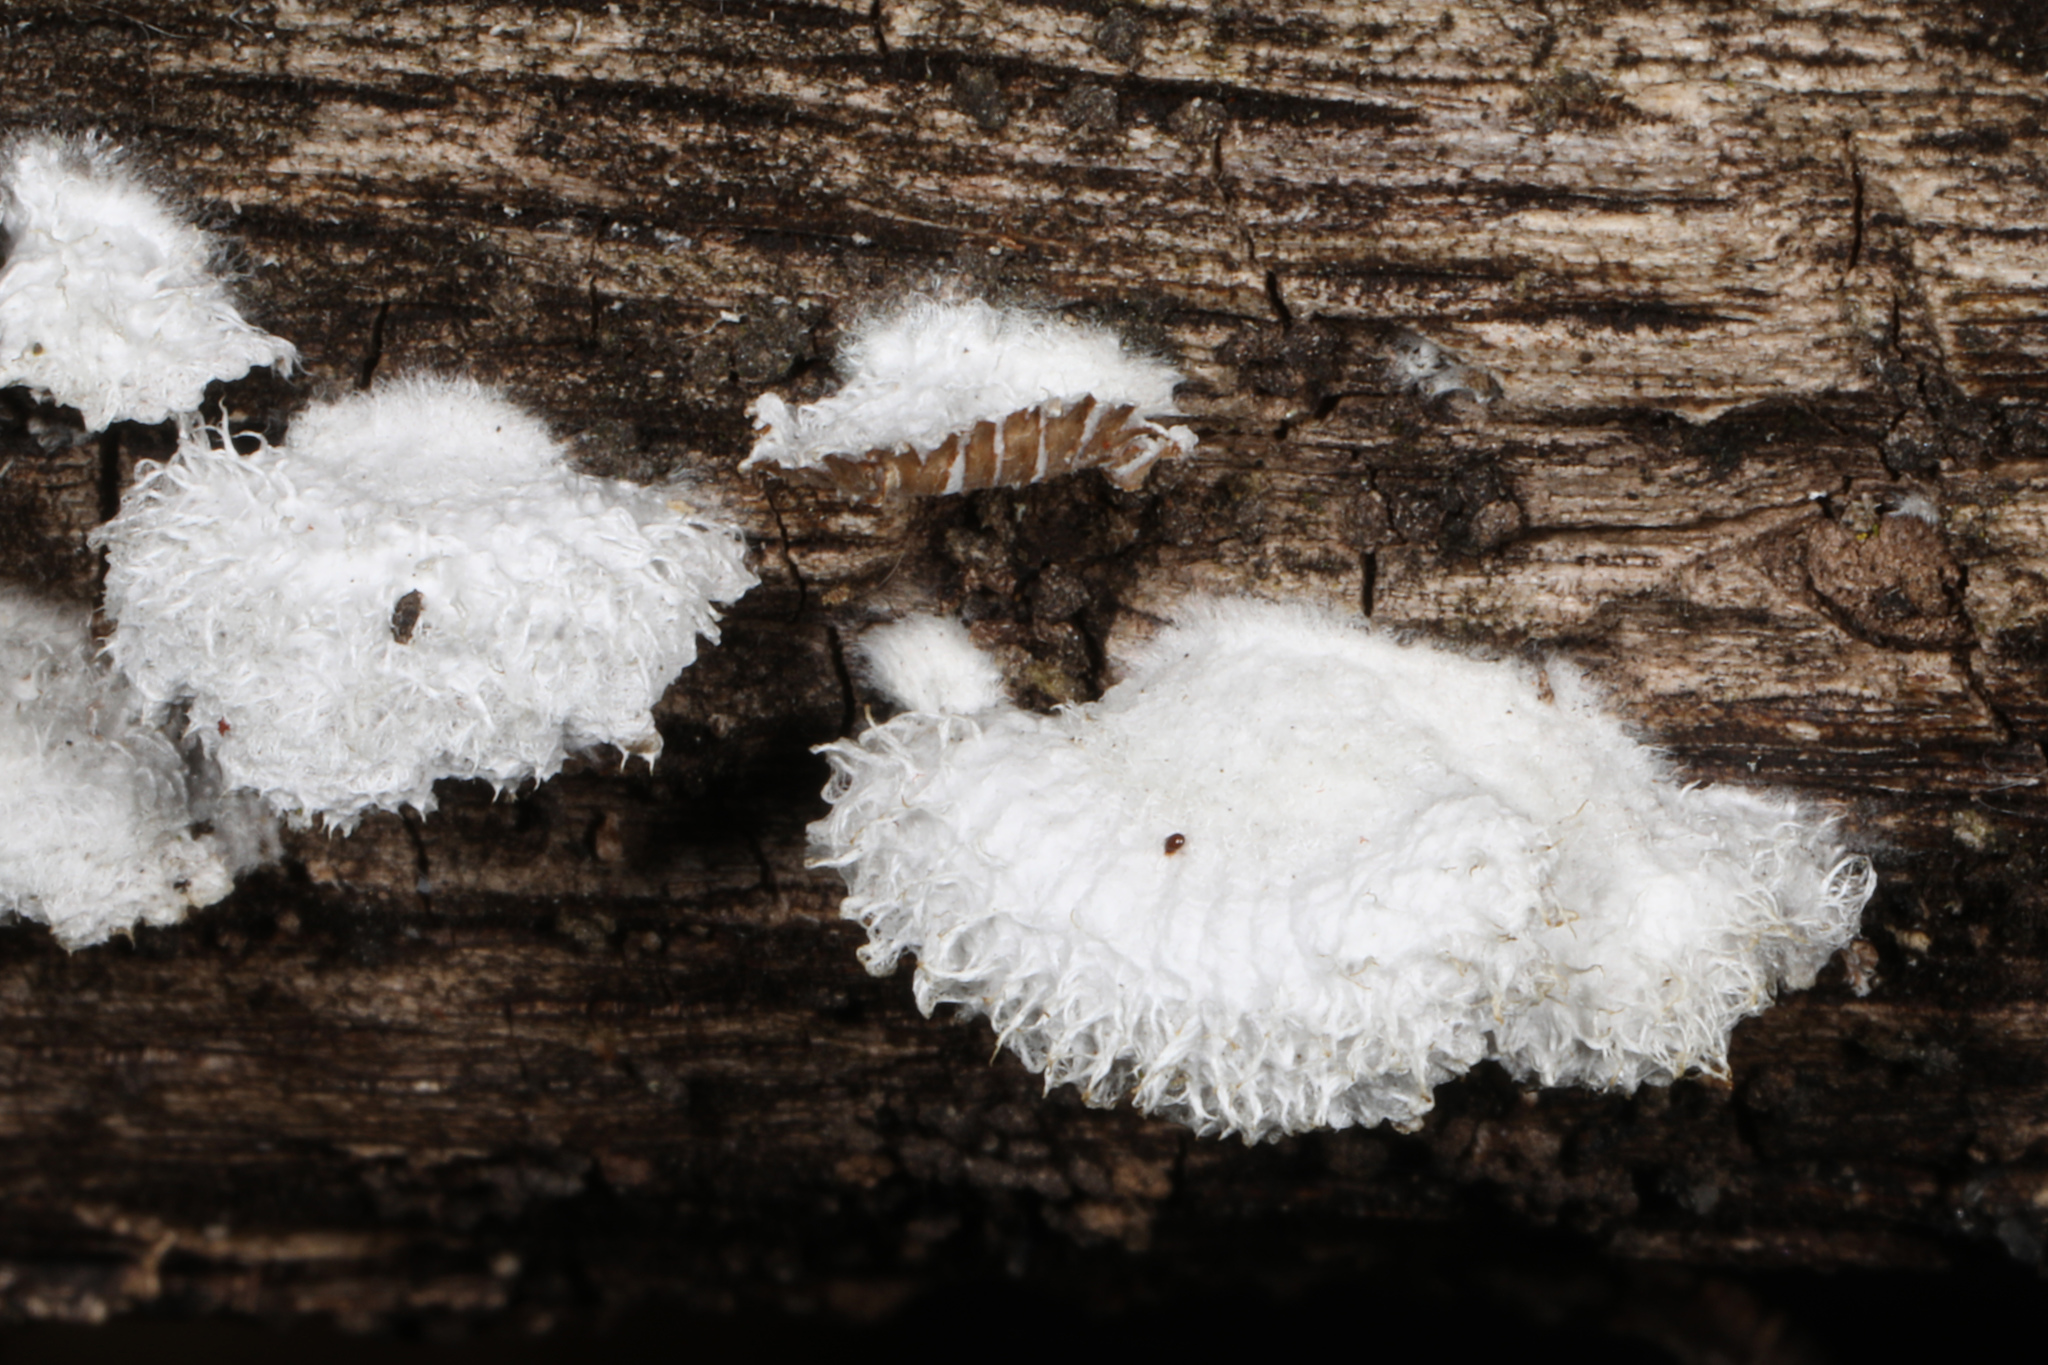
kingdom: Fungi
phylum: Basidiomycota
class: Agaricomycetes
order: Agaricales
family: Schizophyllaceae
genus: Schizophyllum
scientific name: Schizophyllum commune
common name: Common porecrust
